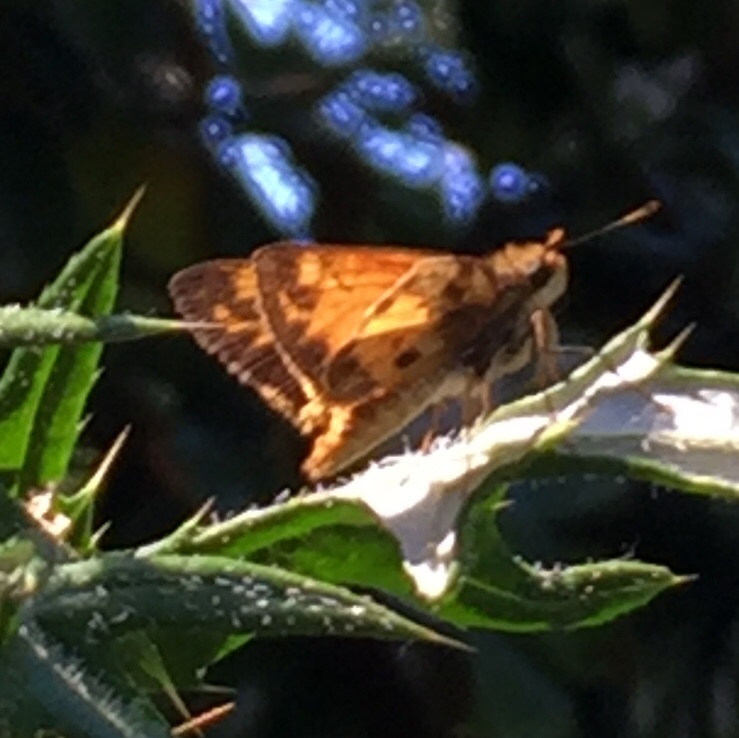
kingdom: Animalia
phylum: Arthropoda
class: Insecta
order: Lepidoptera
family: Hesperiidae
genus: Lon
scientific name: Lon zabulon
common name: Zabulon skipper
